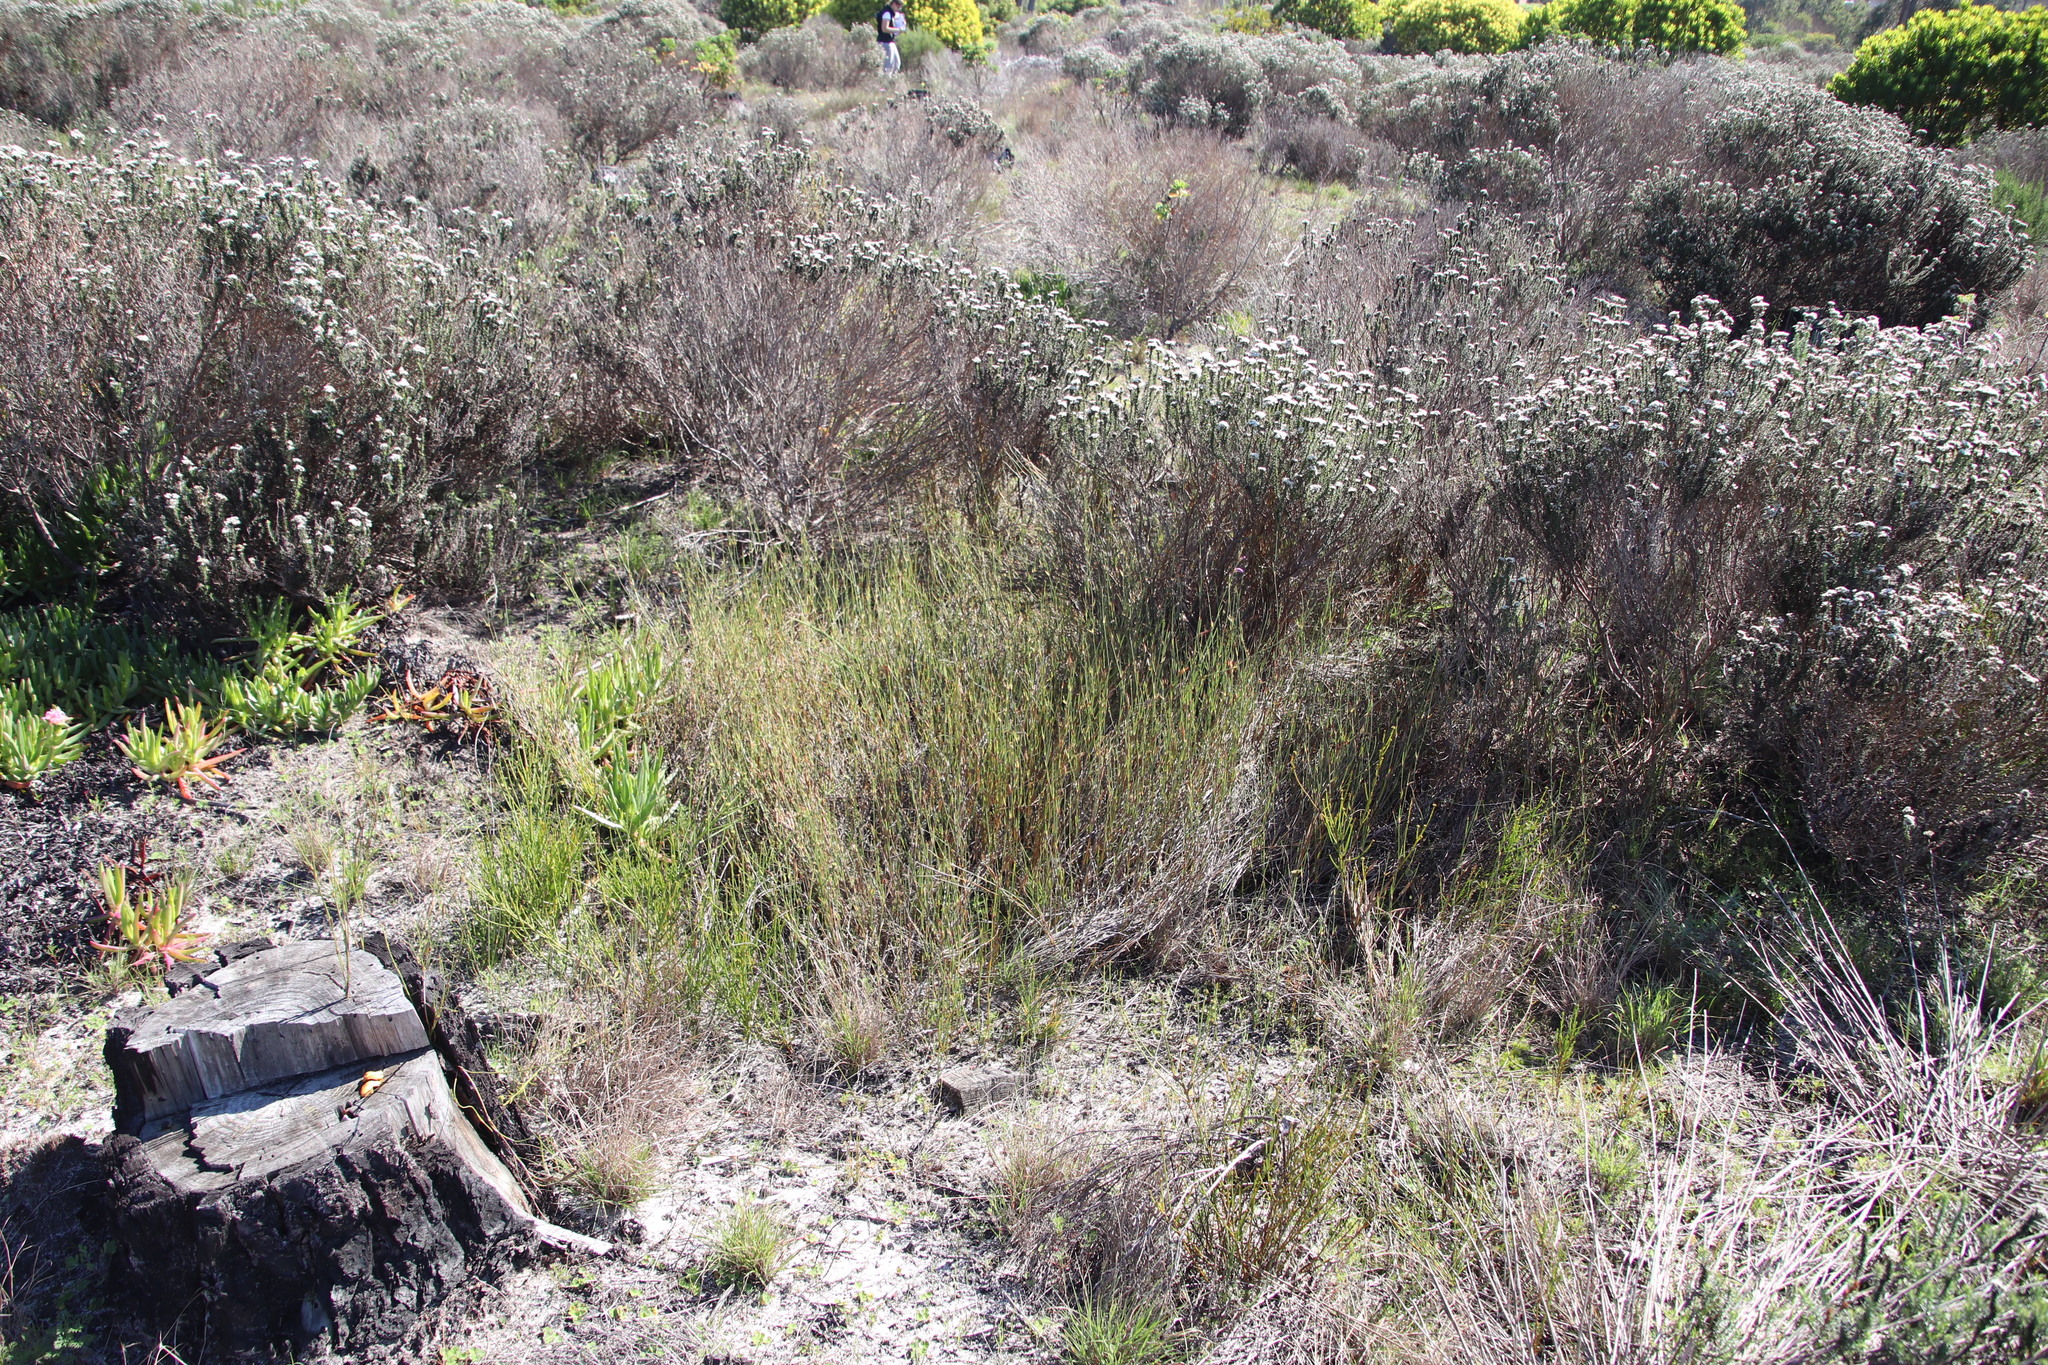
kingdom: Plantae
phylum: Tracheophyta
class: Liliopsida
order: Poales
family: Restionaceae
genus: Willdenowia
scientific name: Willdenowia sulcata
